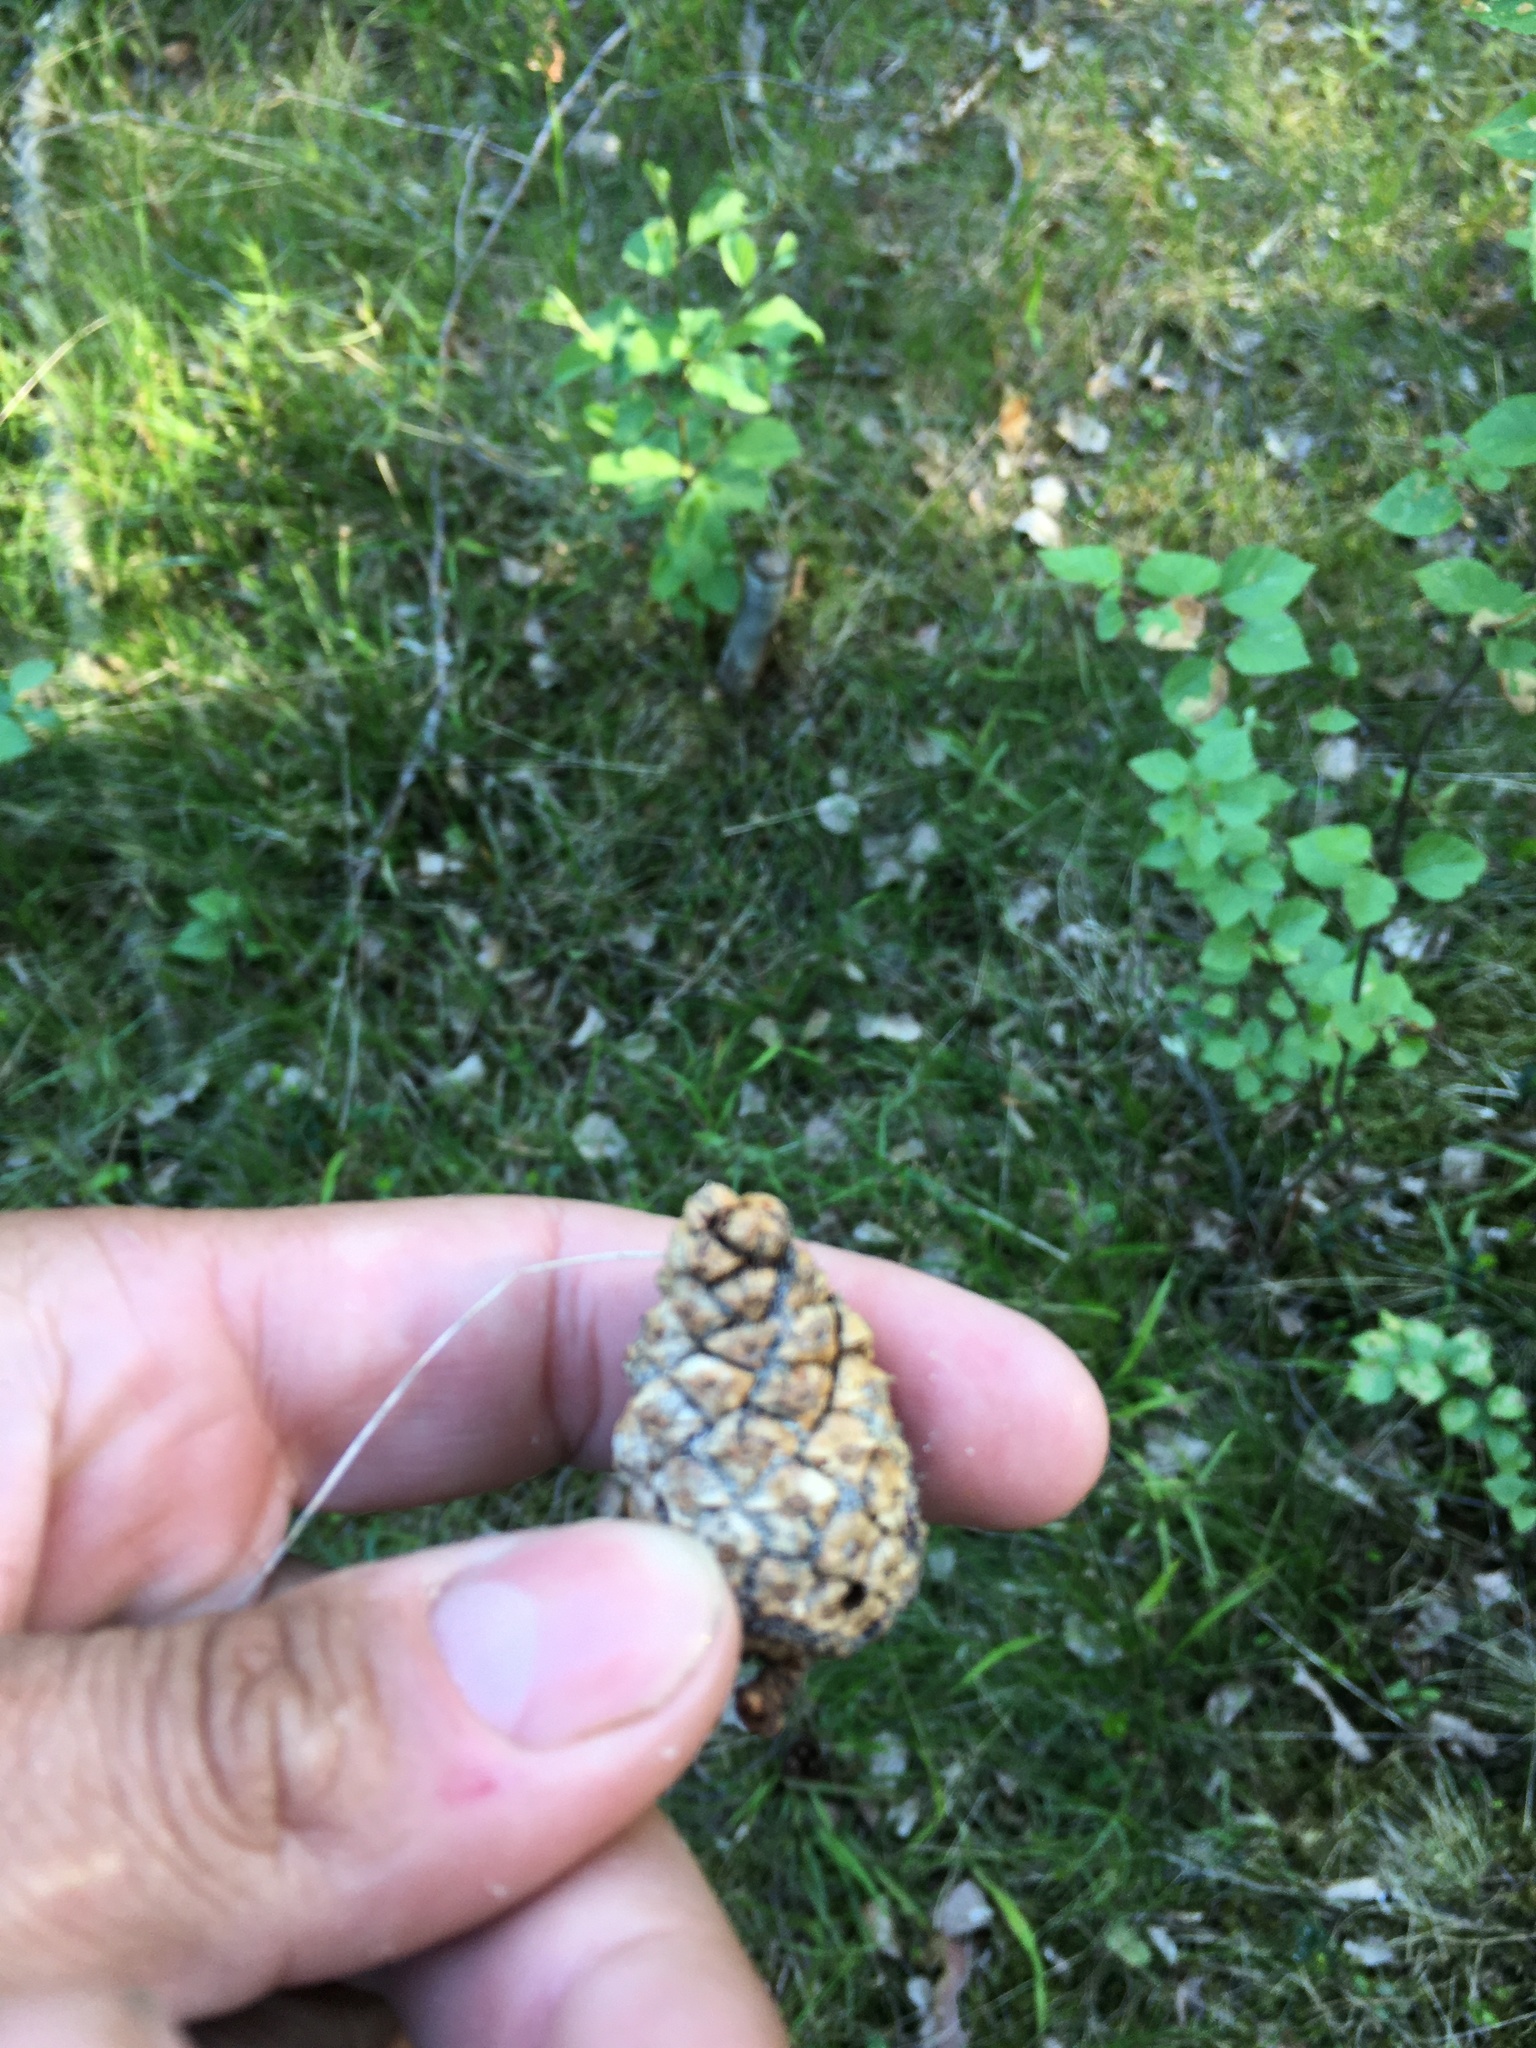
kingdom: Plantae
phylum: Tracheophyta
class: Pinopsida
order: Pinales
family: Pinaceae
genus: Pinus
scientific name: Pinus sylvestris
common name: Scots pine
